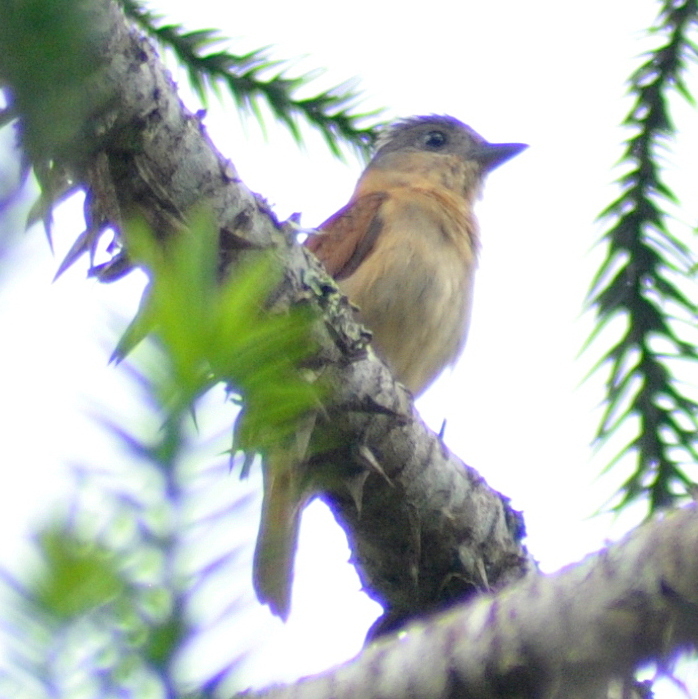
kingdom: Animalia
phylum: Chordata
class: Aves
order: Passeriformes
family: Cotingidae
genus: Pachyramphus
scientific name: Pachyramphus validus
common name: Crested becard
